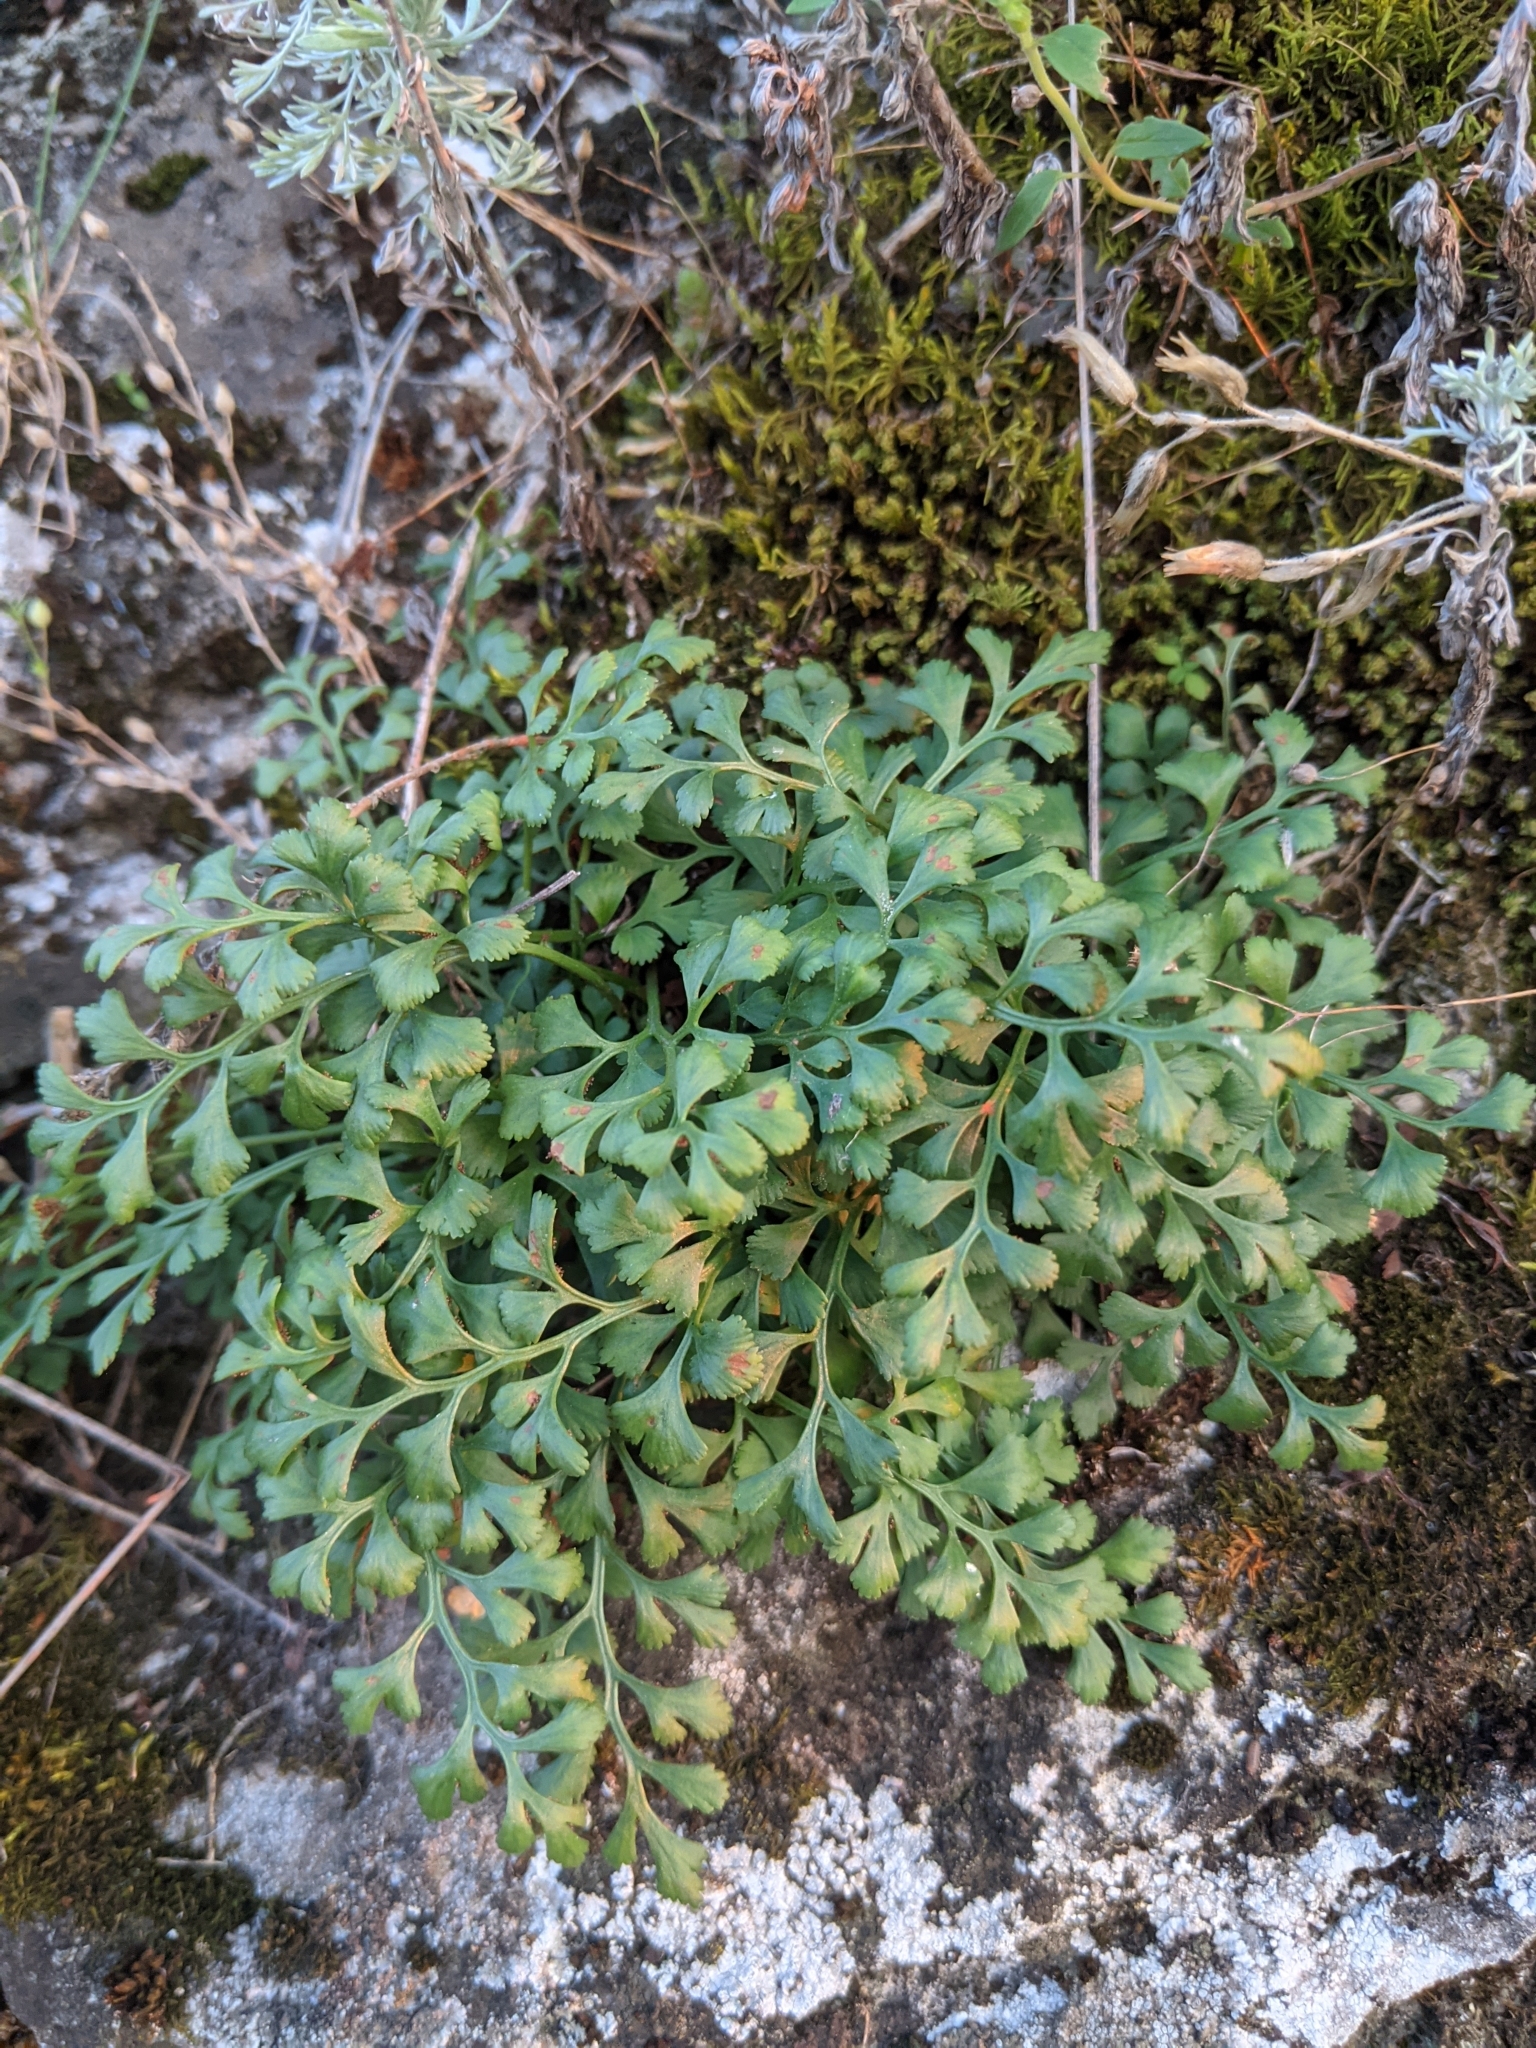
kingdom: Plantae
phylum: Tracheophyta
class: Polypodiopsida
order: Polypodiales
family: Aspleniaceae
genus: Asplenium
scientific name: Asplenium ruta-muraria
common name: Wall-rue
